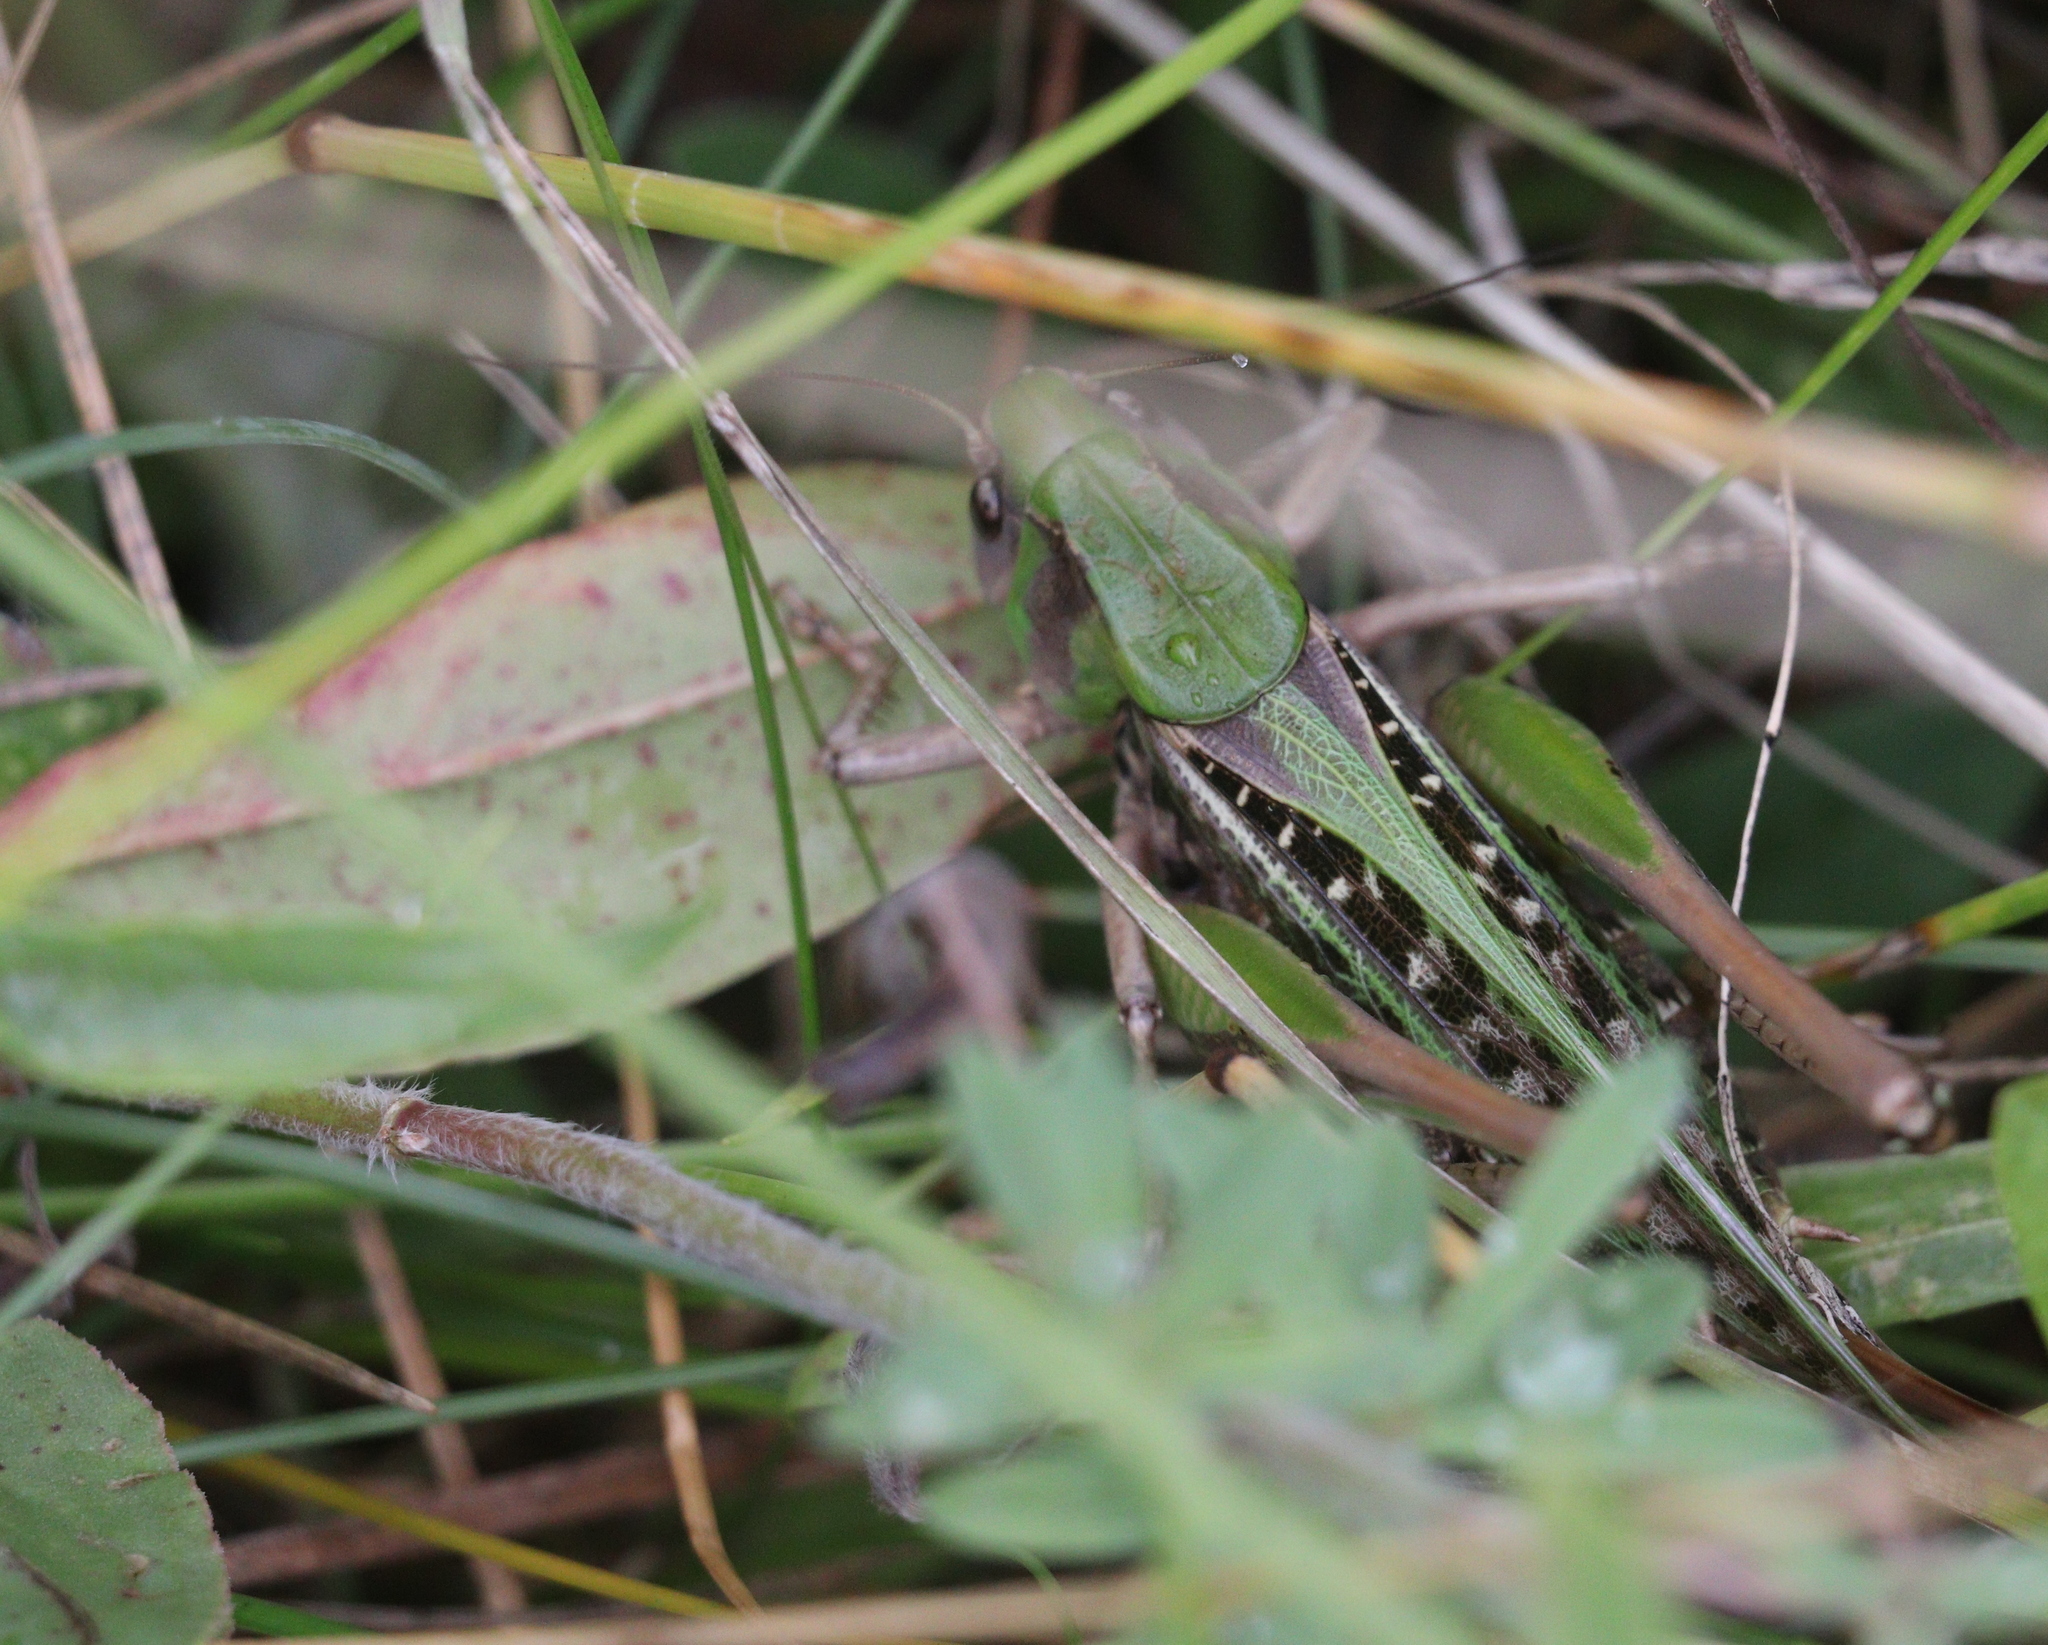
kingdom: Animalia
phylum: Arthropoda
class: Insecta
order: Orthoptera
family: Tettigoniidae
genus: Decticus
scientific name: Decticus verrucivorus
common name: Wart-biter
